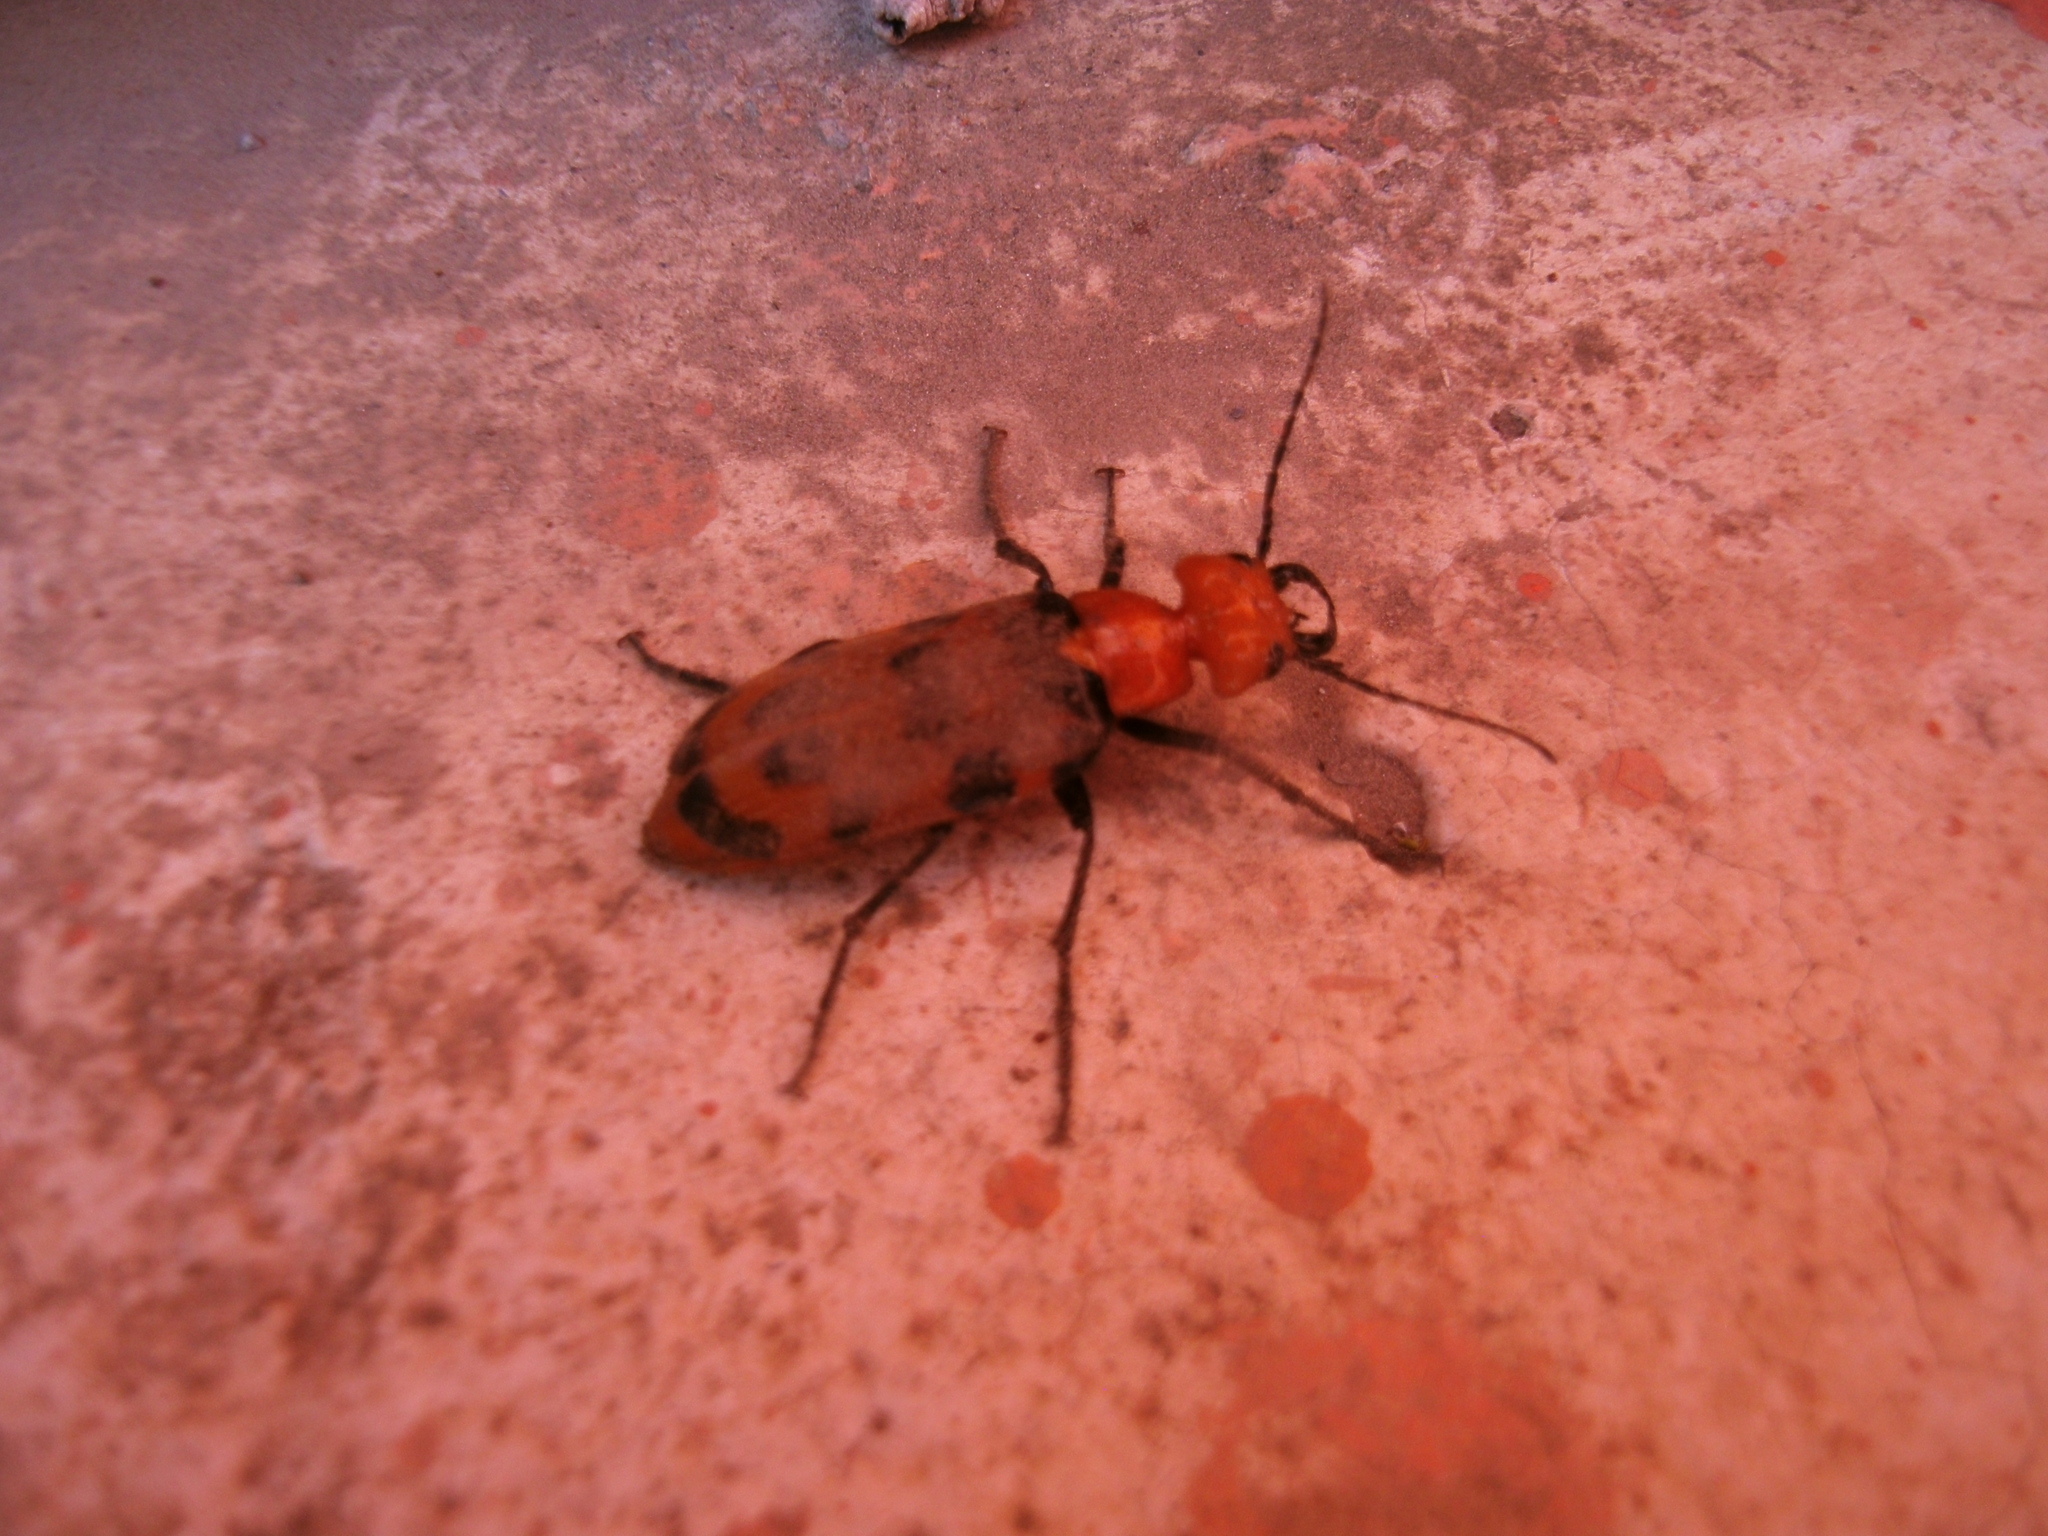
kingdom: Animalia
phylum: Arthropoda
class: Insecta
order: Coleoptera
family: Meloidae
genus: Cissites
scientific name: Cissites auriculata
